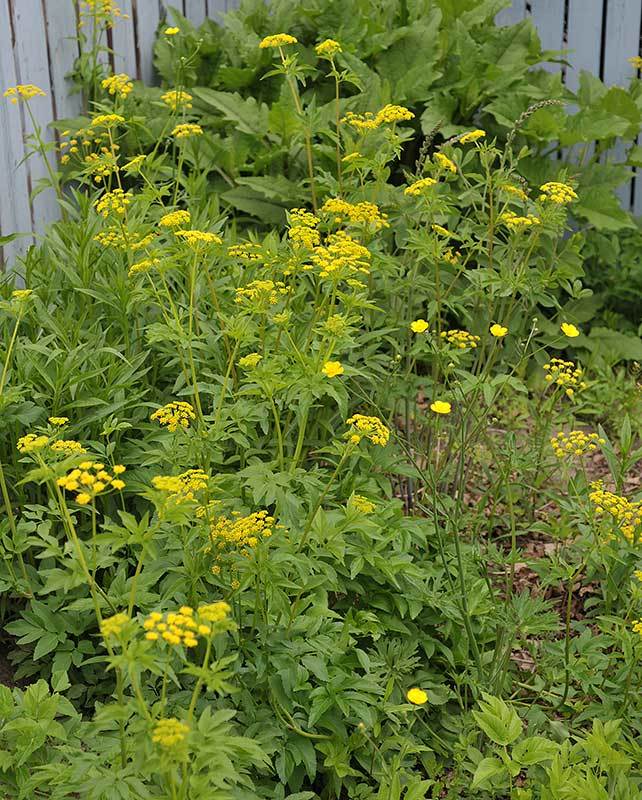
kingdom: Plantae
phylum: Tracheophyta
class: Magnoliopsida
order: Apiales
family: Apiaceae
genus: Zizia
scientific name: Zizia aurea
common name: Golden alexanders
